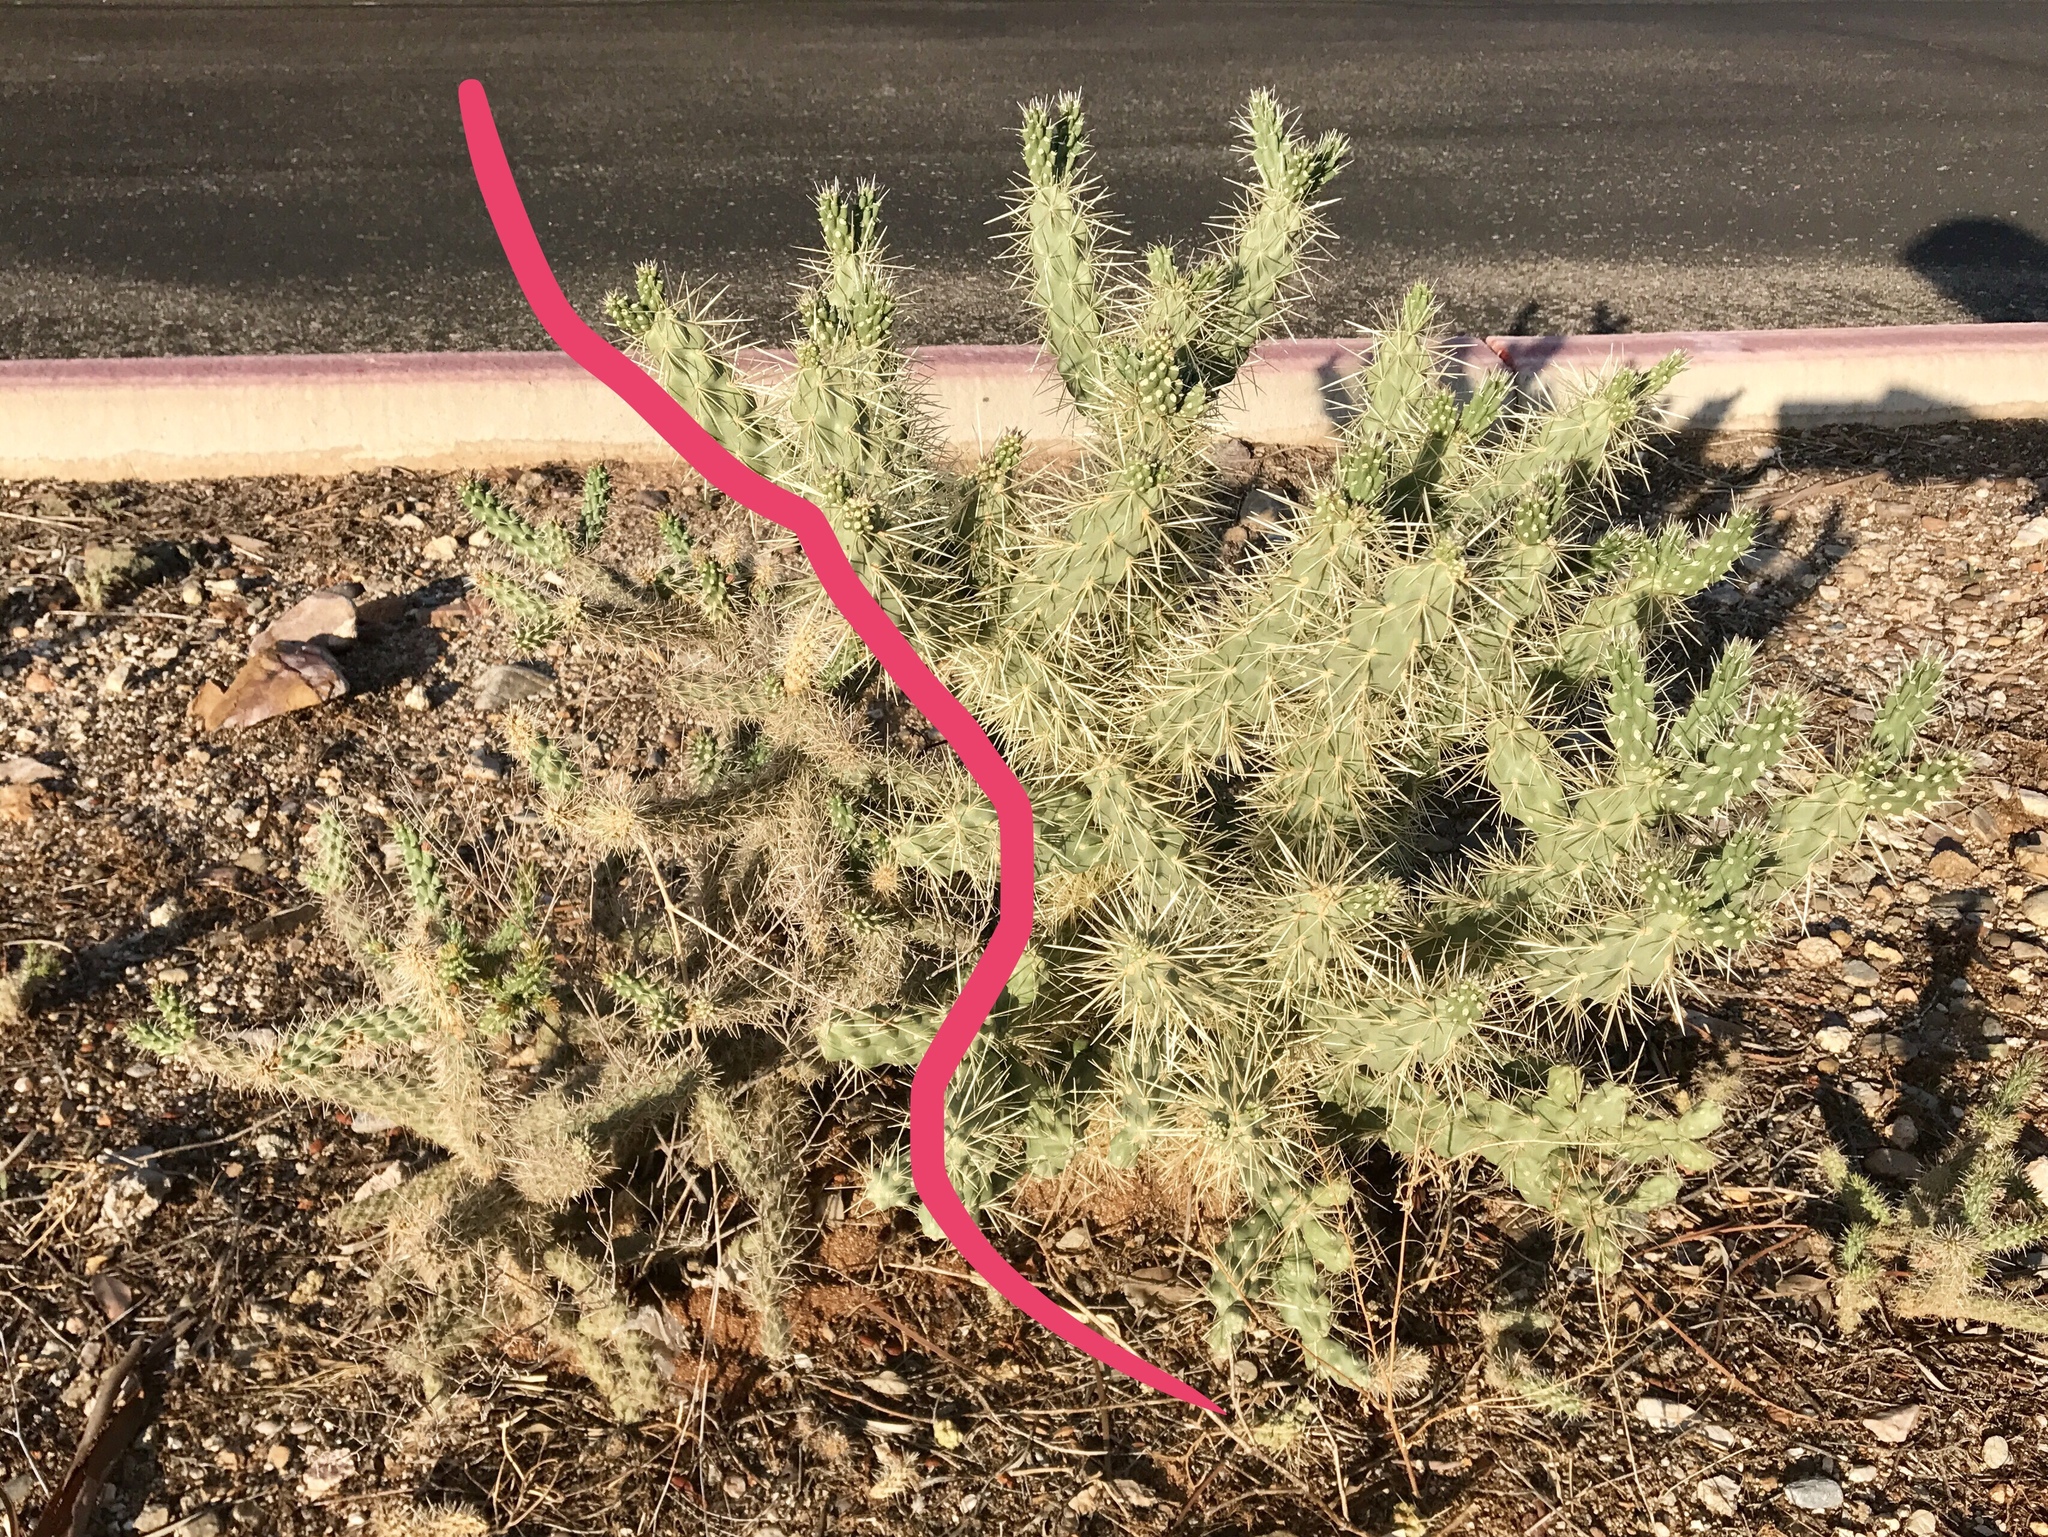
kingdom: Plantae
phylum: Tracheophyta
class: Magnoliopsida
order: Caryophyllales
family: Cactaceae
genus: Cylindropuntia
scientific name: Cylindropuntia imbricata
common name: Candelabrum cactus
